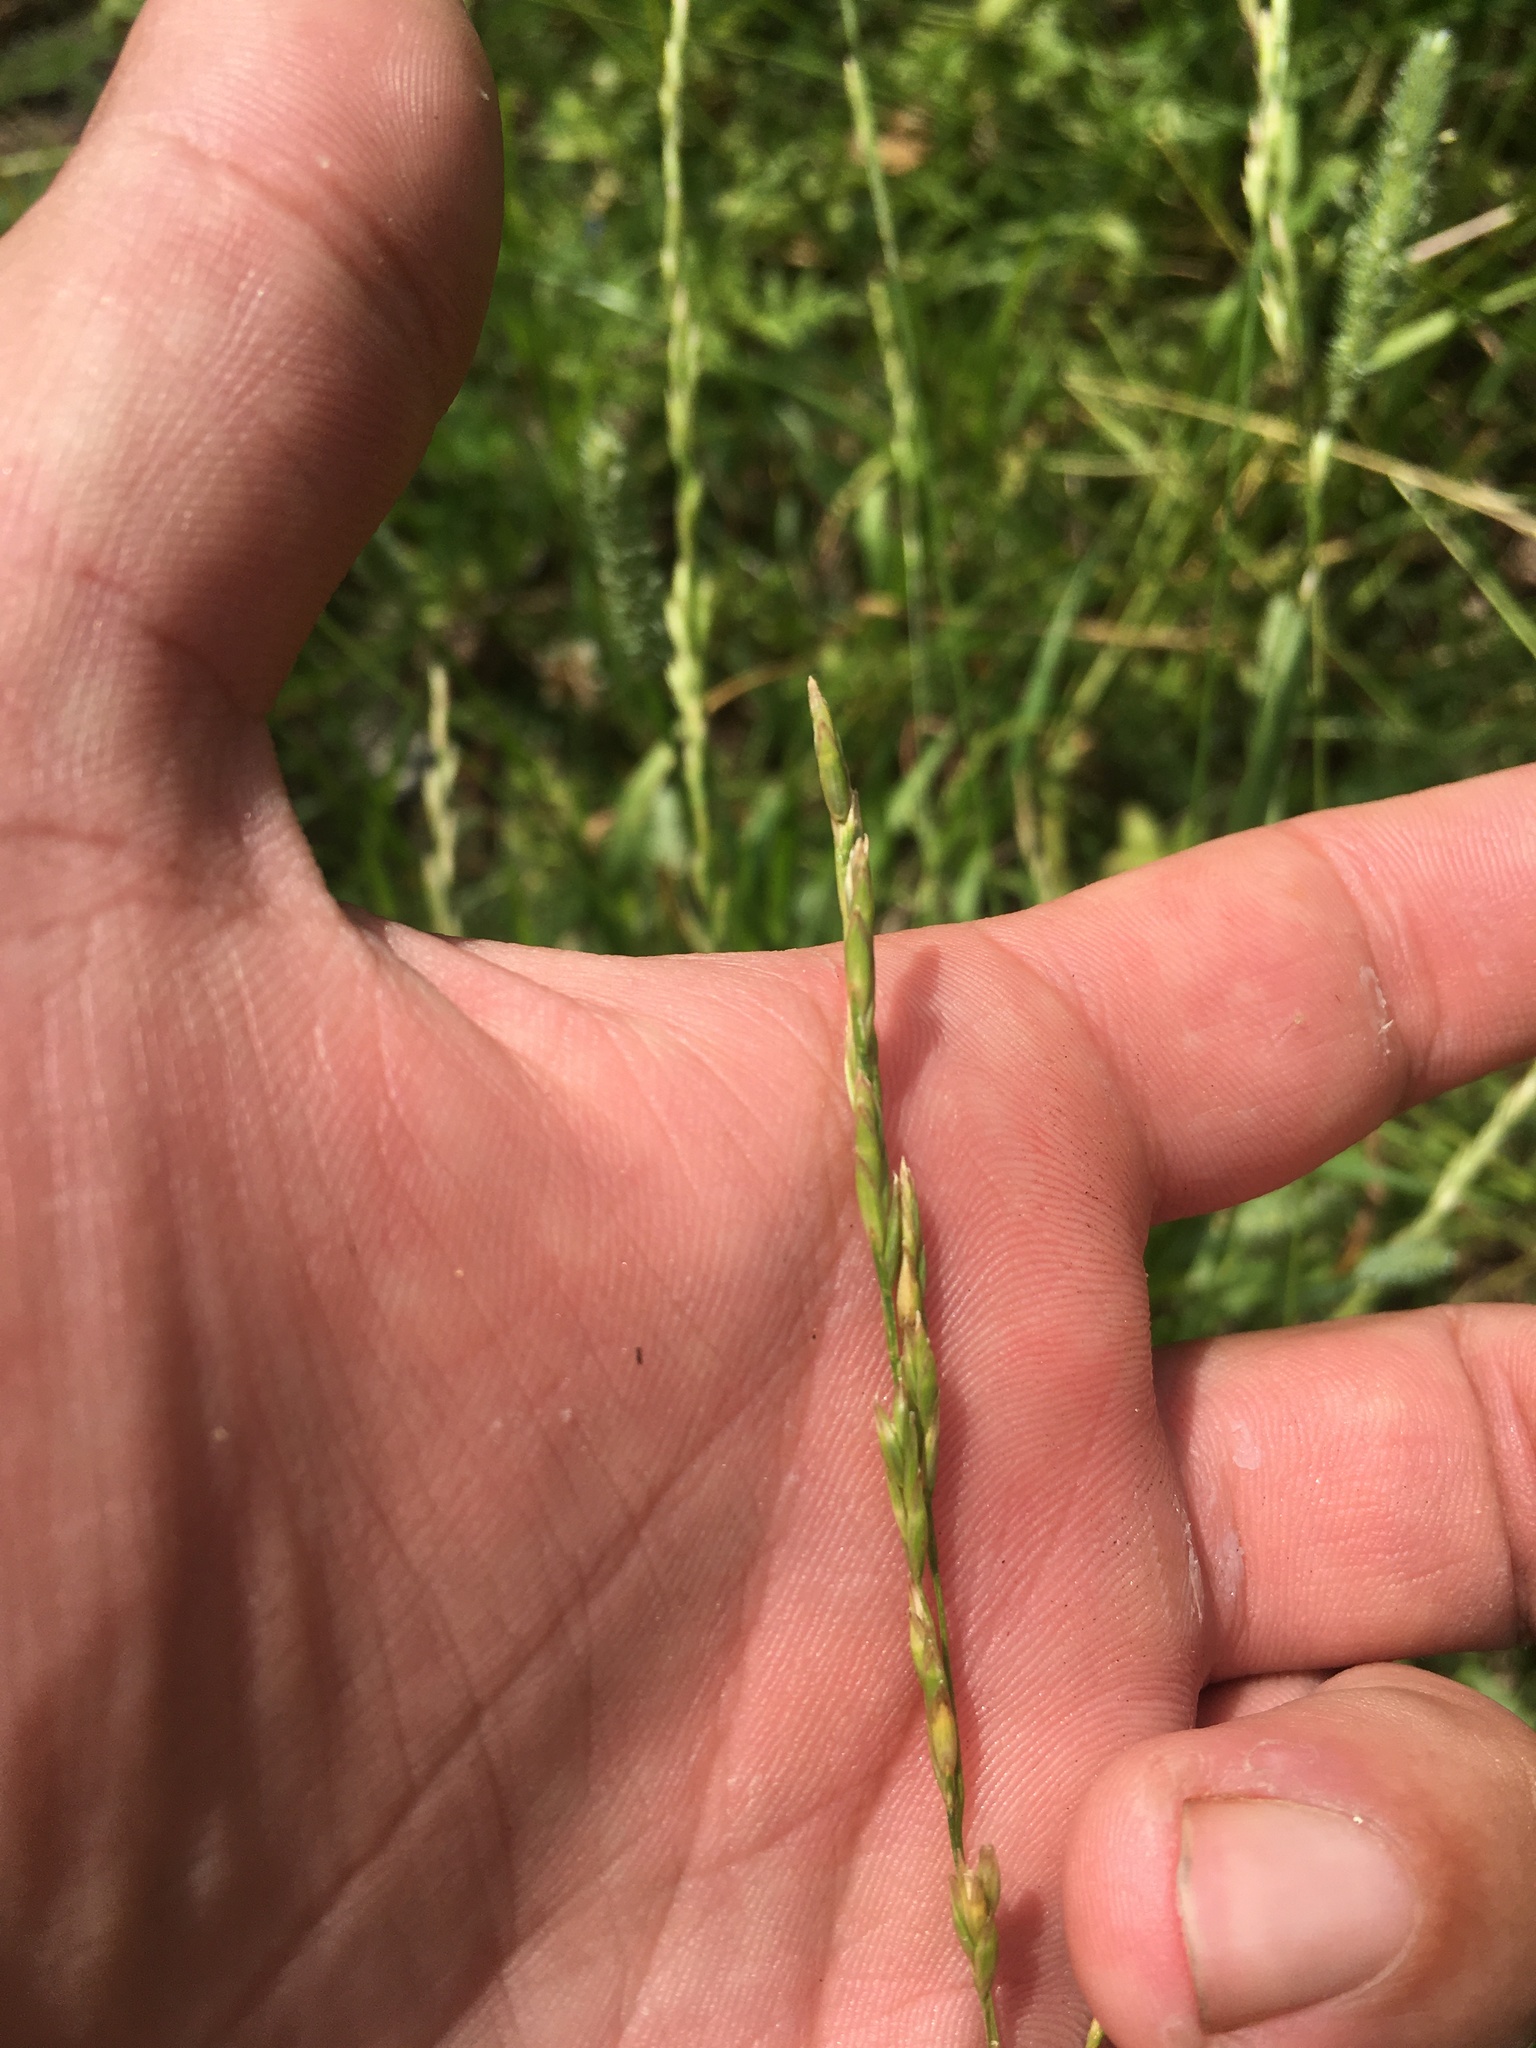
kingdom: Plantae
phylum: Tracheophyta
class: Liliopsida
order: Poales
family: Poaceae
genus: Lolium
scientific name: Lolium pratense
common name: Dover grass
